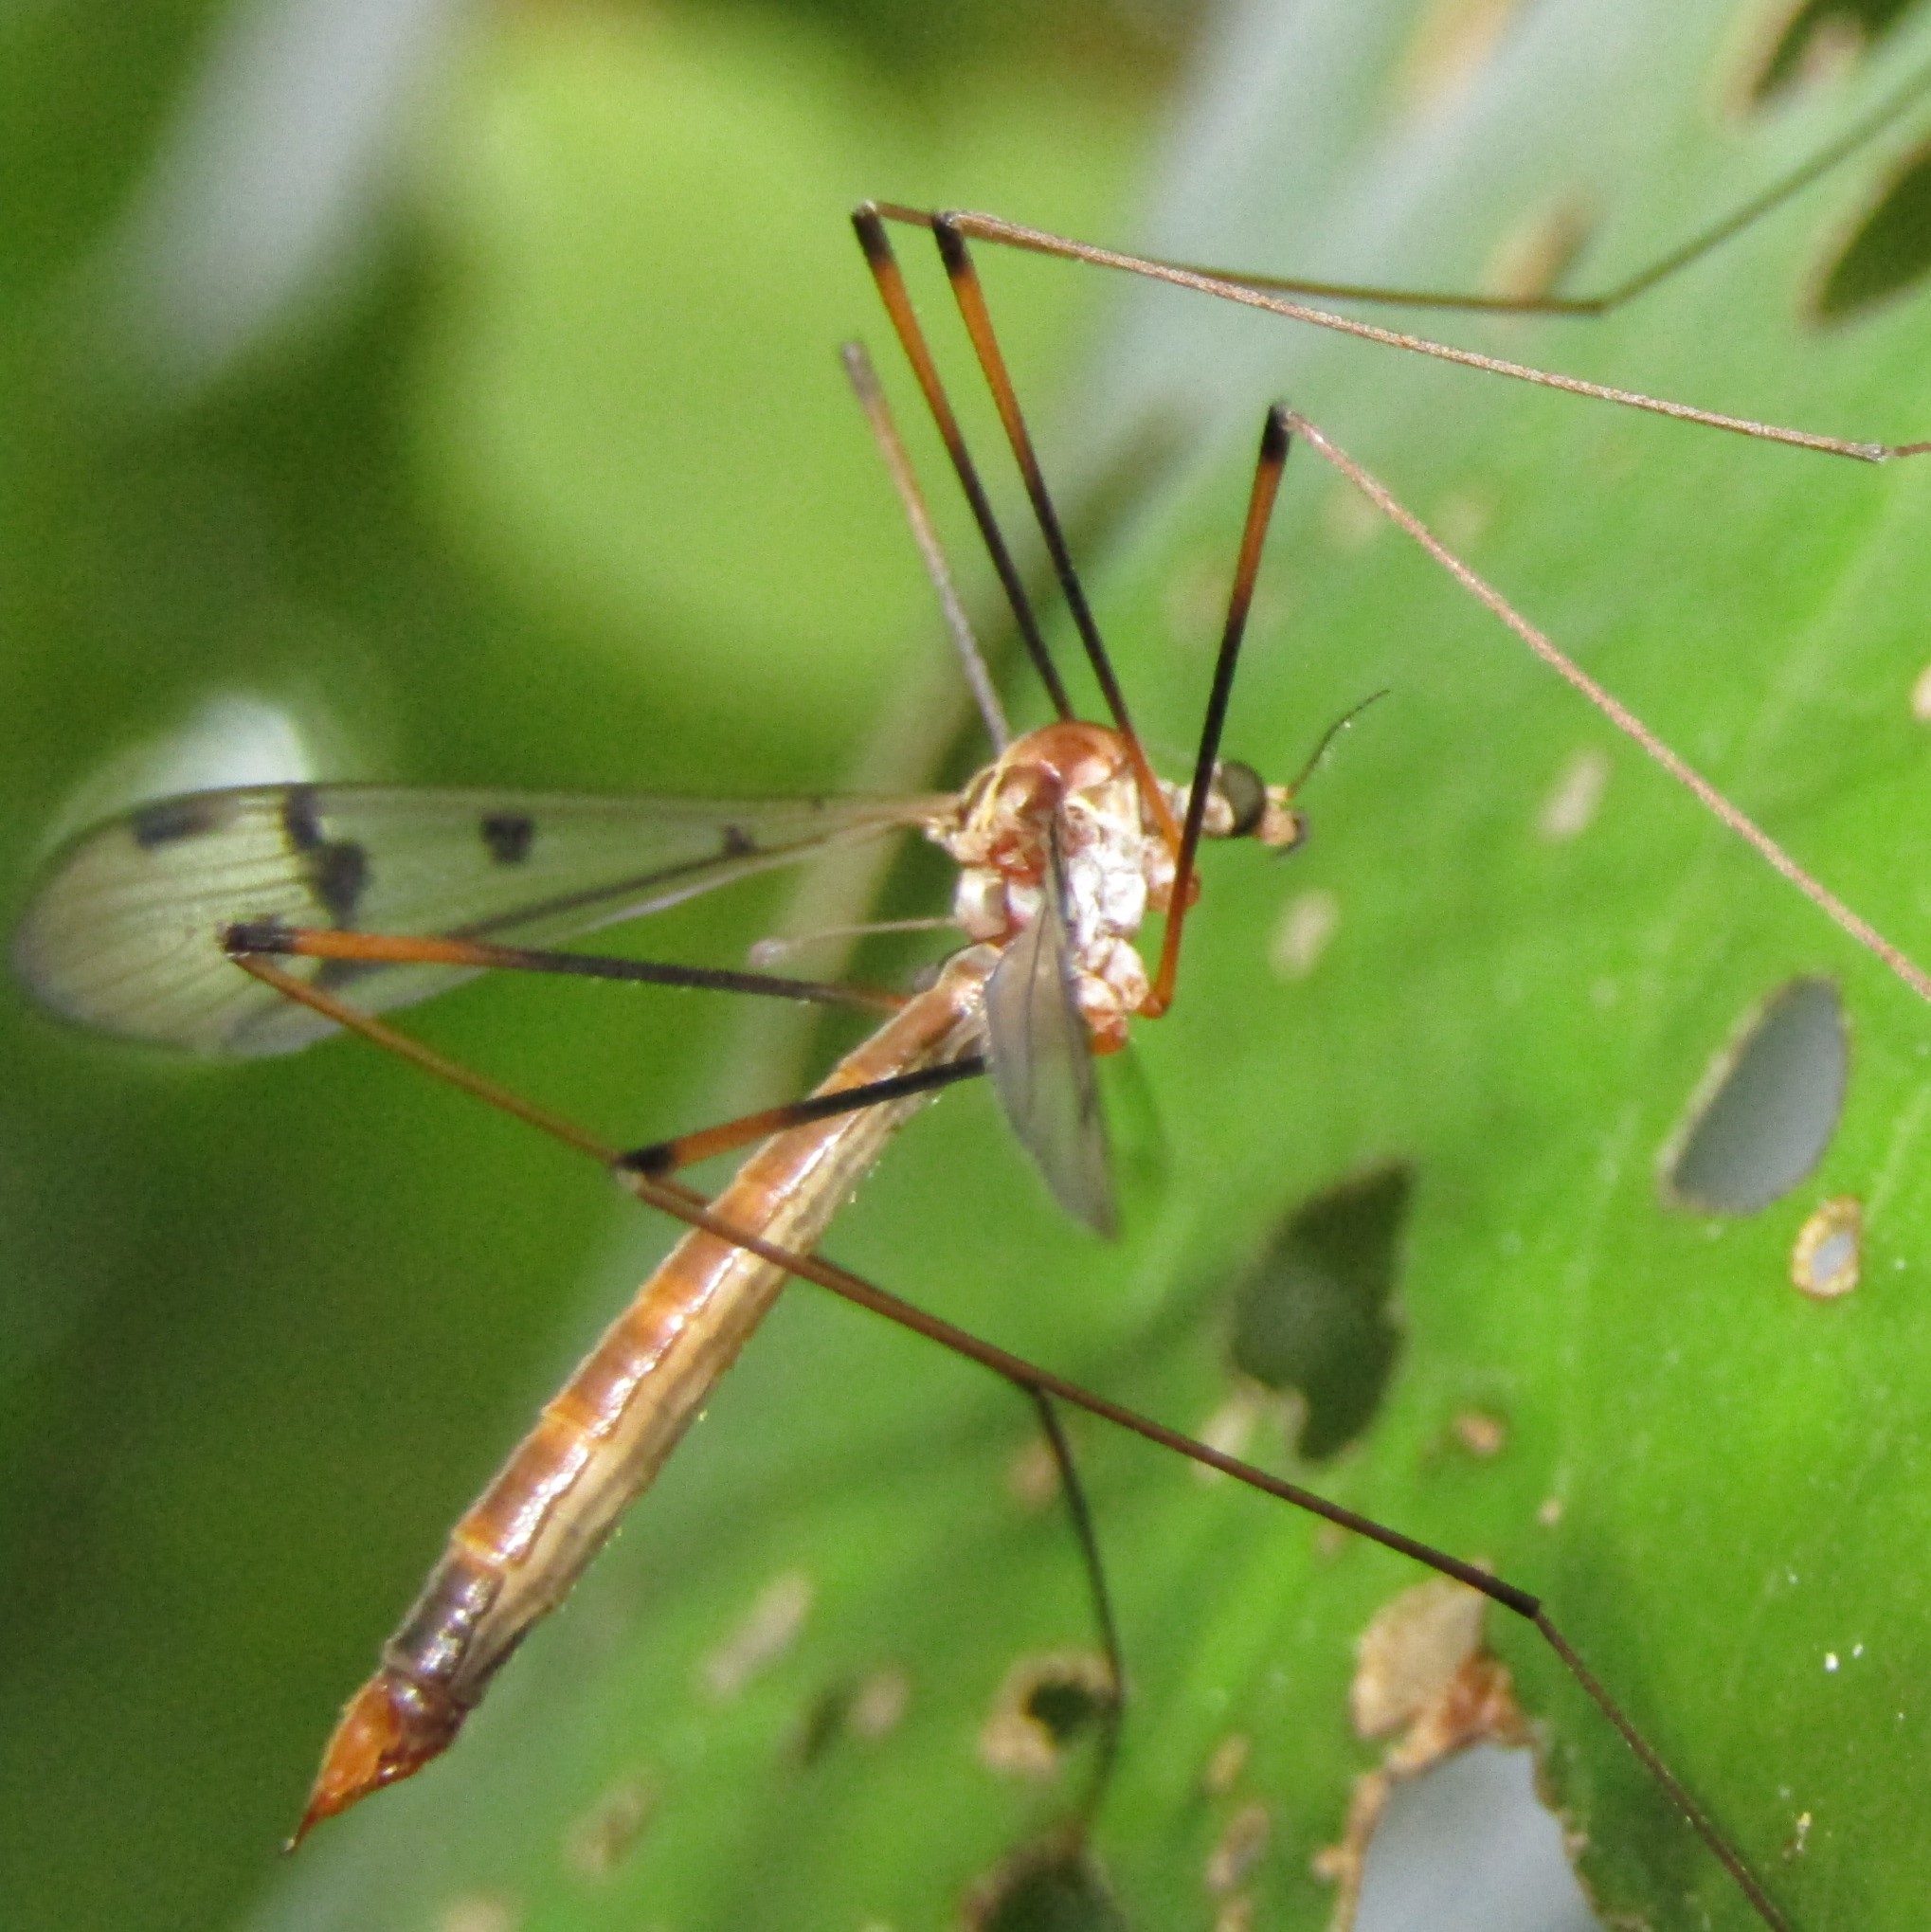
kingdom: Animalia
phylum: Arthropoda
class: Insecta
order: Diptera
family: Limoniidae
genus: Limnophilella
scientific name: Limnophilella serotina
